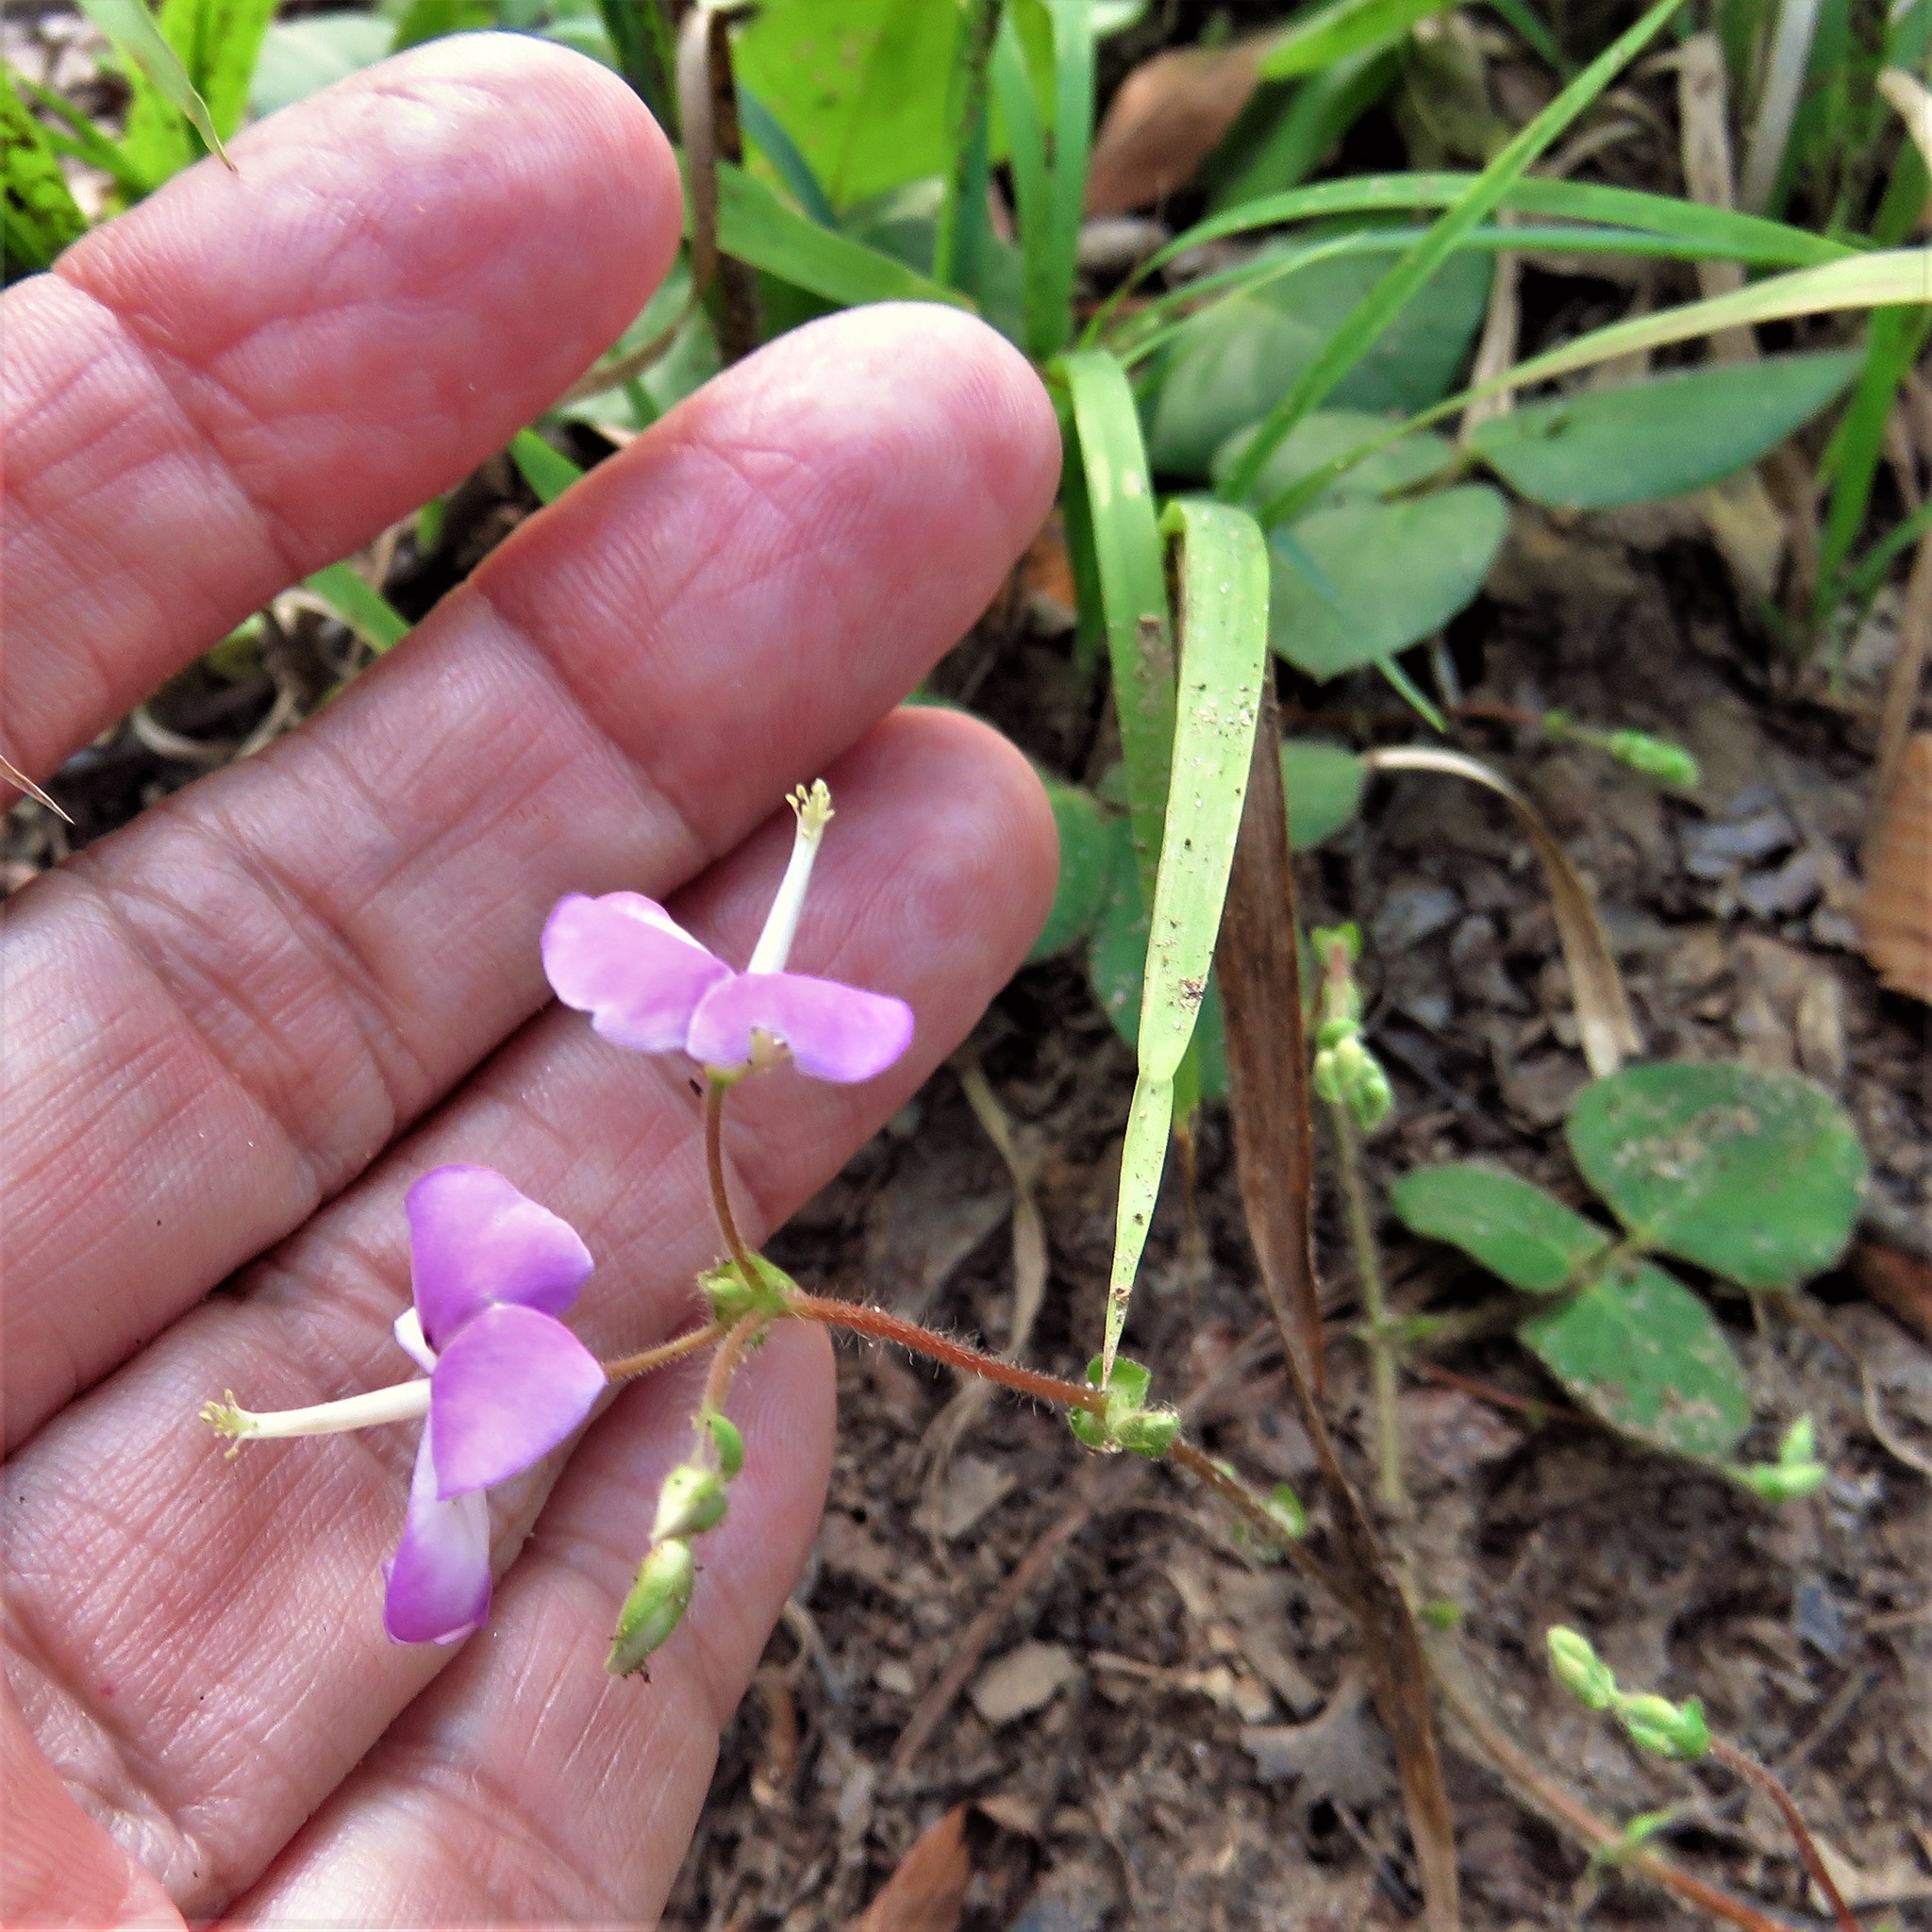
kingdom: Plantae
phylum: Tracheophyta
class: Magnoliopsida
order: Fabales
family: Fabaceae
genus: Desmodium
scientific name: Desmodium rotundifolium
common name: Dollarleaf
